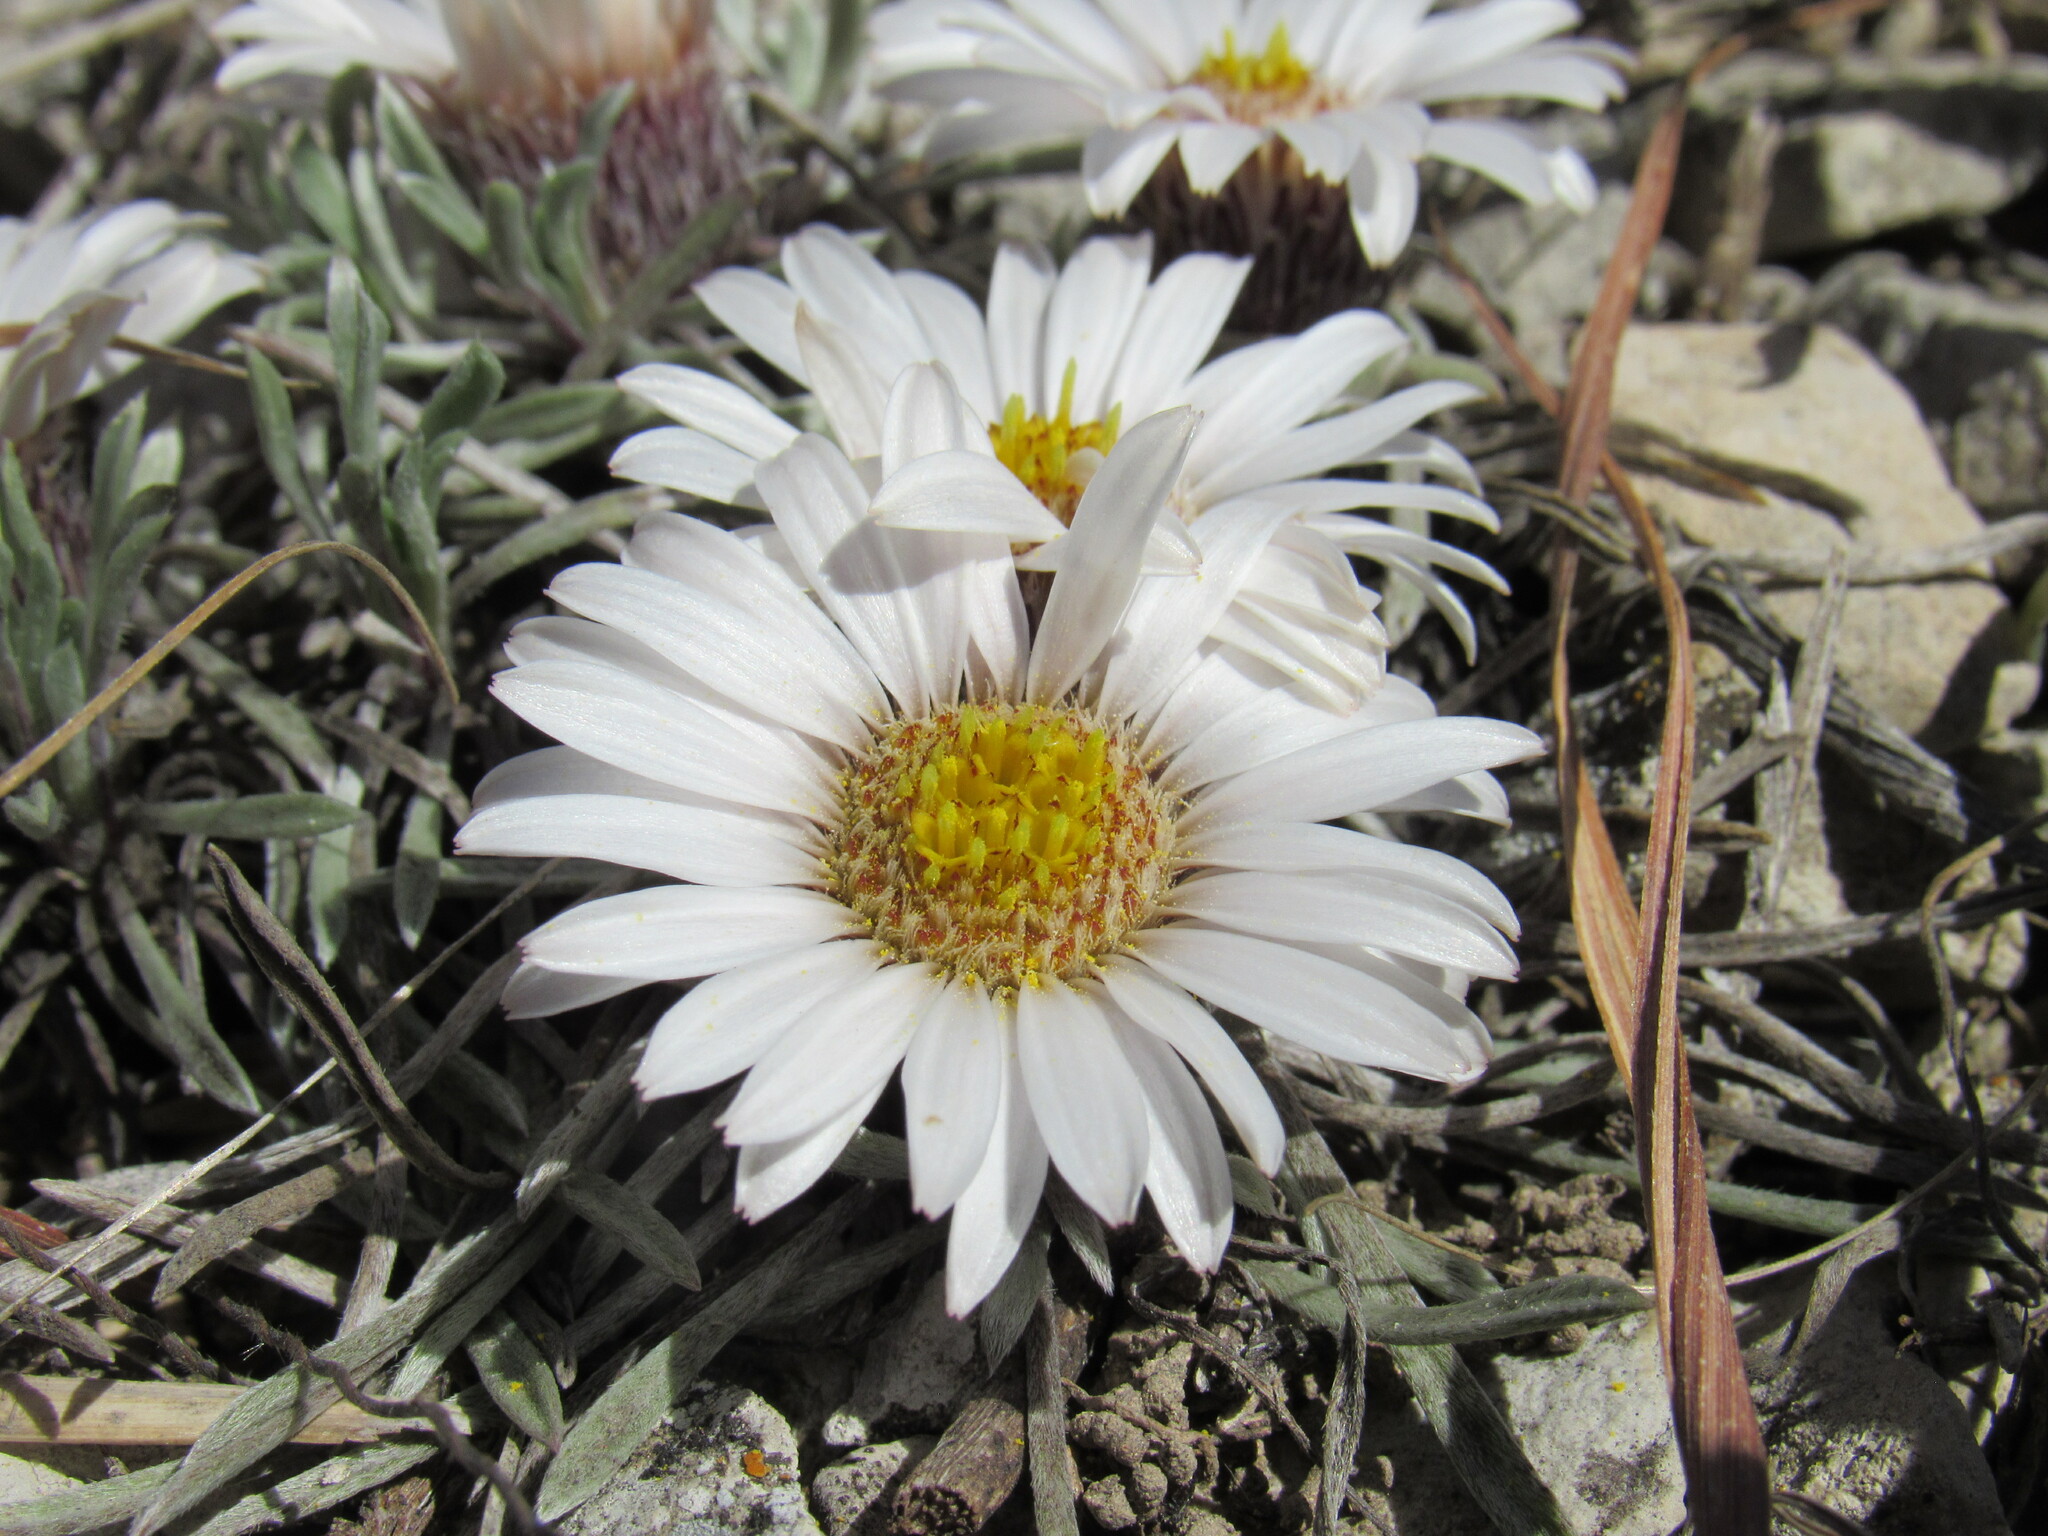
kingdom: Plantae
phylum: Tracheophyta
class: Magnoliopsida
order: Asterales
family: Asteraceae
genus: Townsendia
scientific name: Townsendia hookeri
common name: Hooker's townsend daisy
